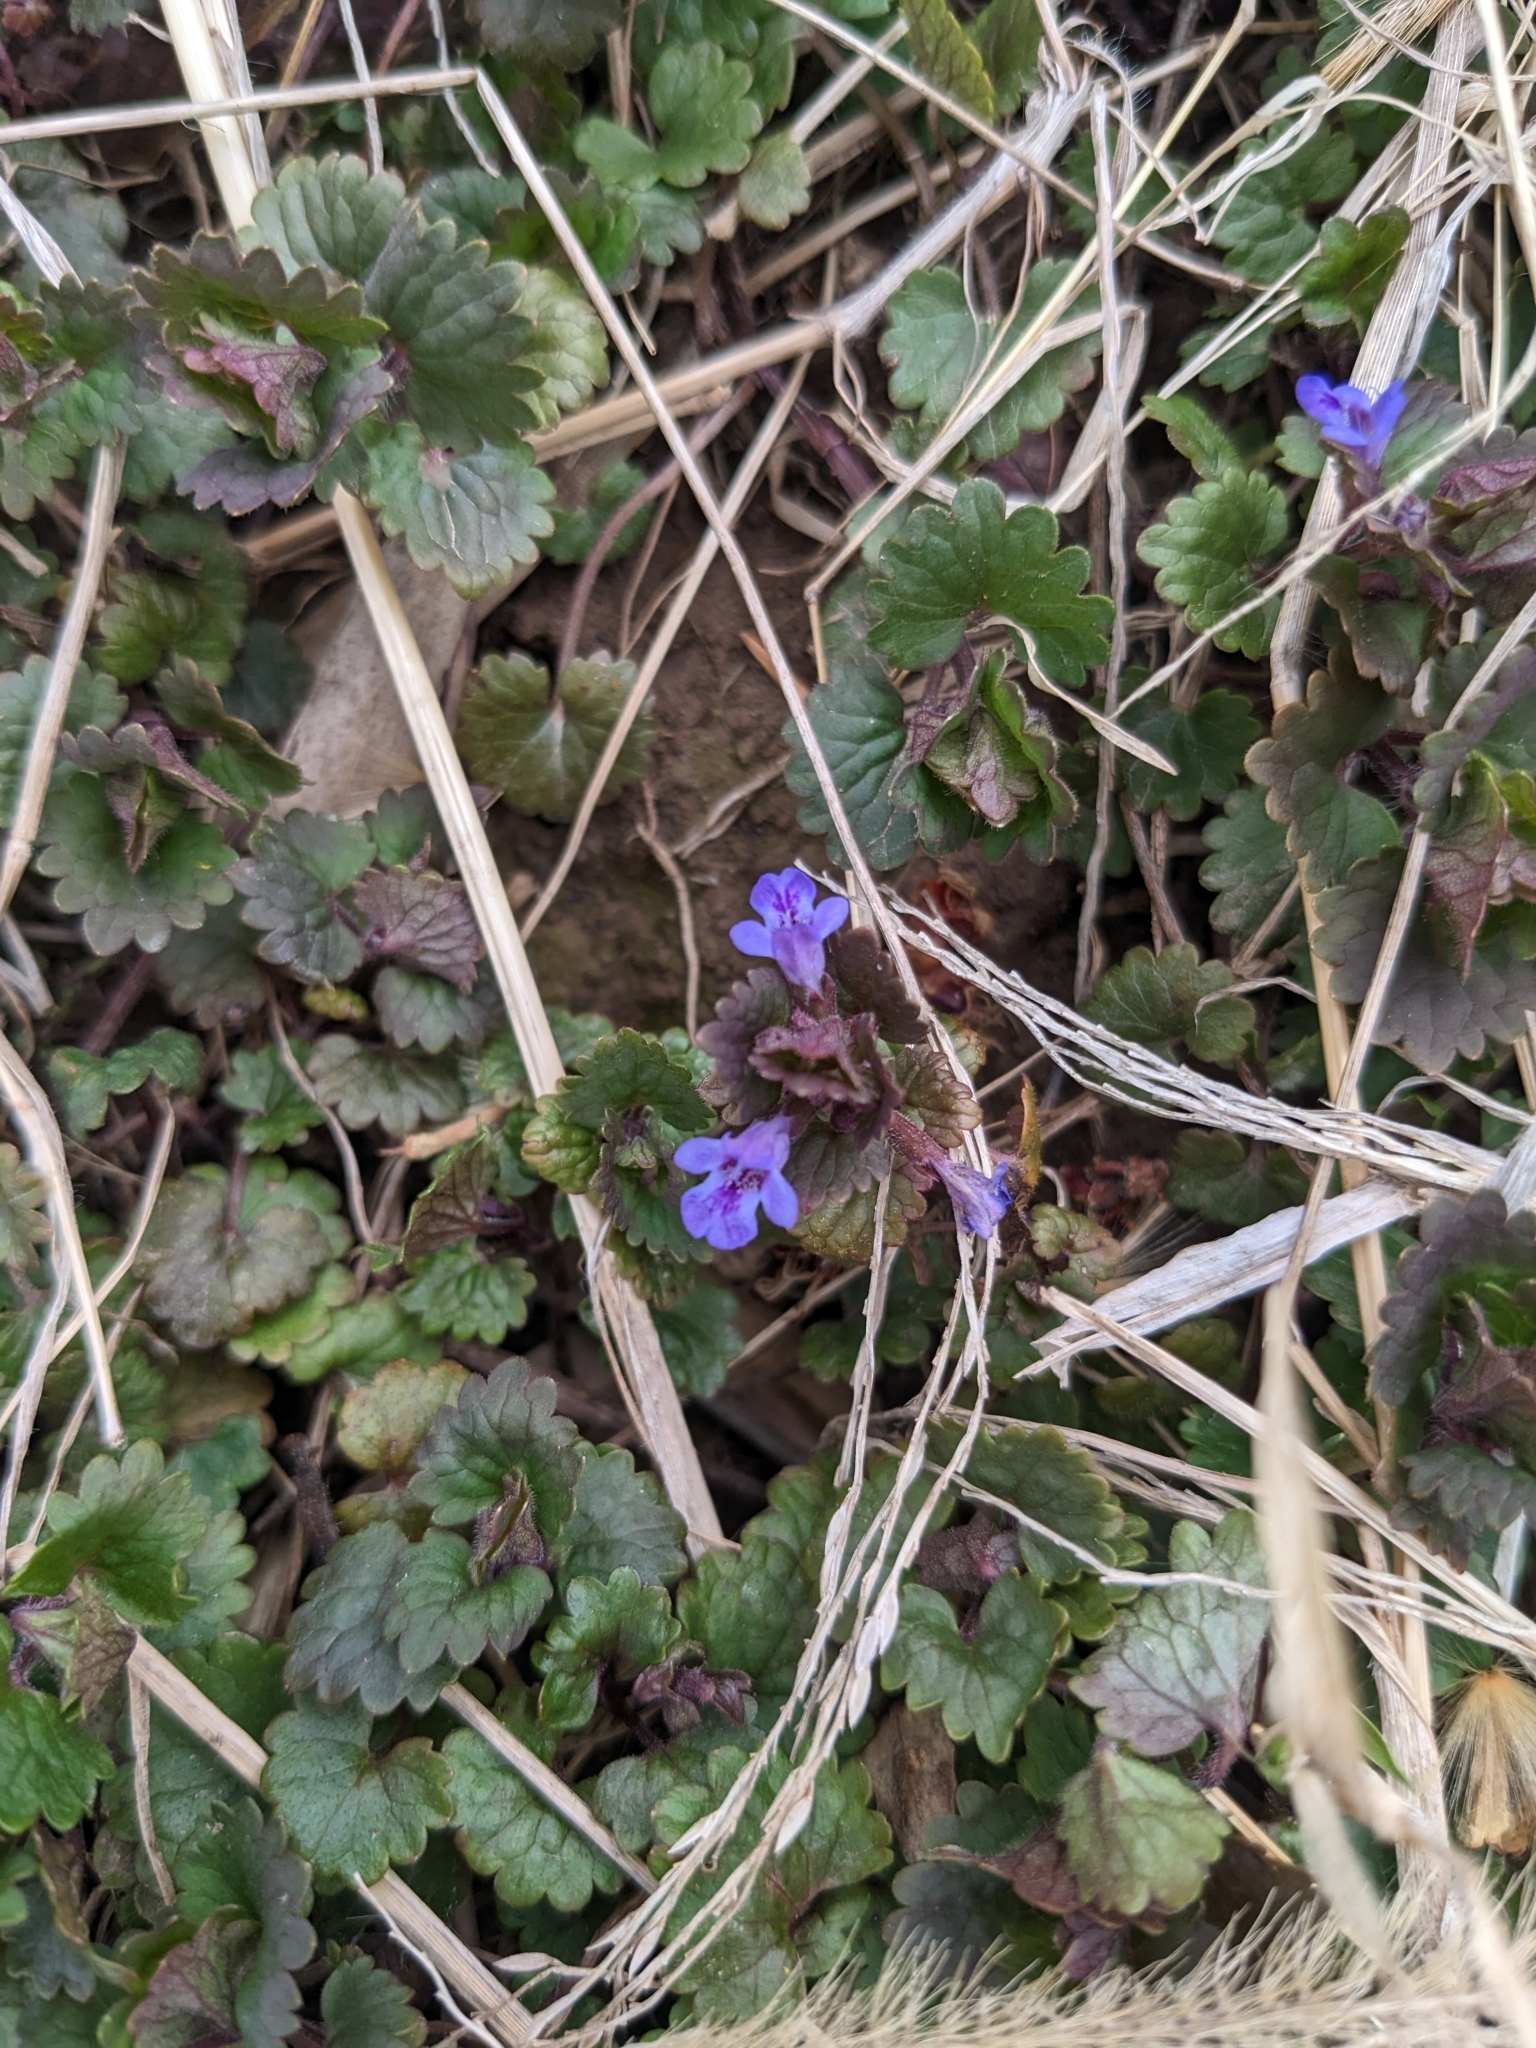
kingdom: Plantae
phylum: Tracheophyta
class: Magnoliopsida
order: Lamiales
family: Lamiaceae
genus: Glechoma
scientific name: Glechoma hederacea
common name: Ground ivy
